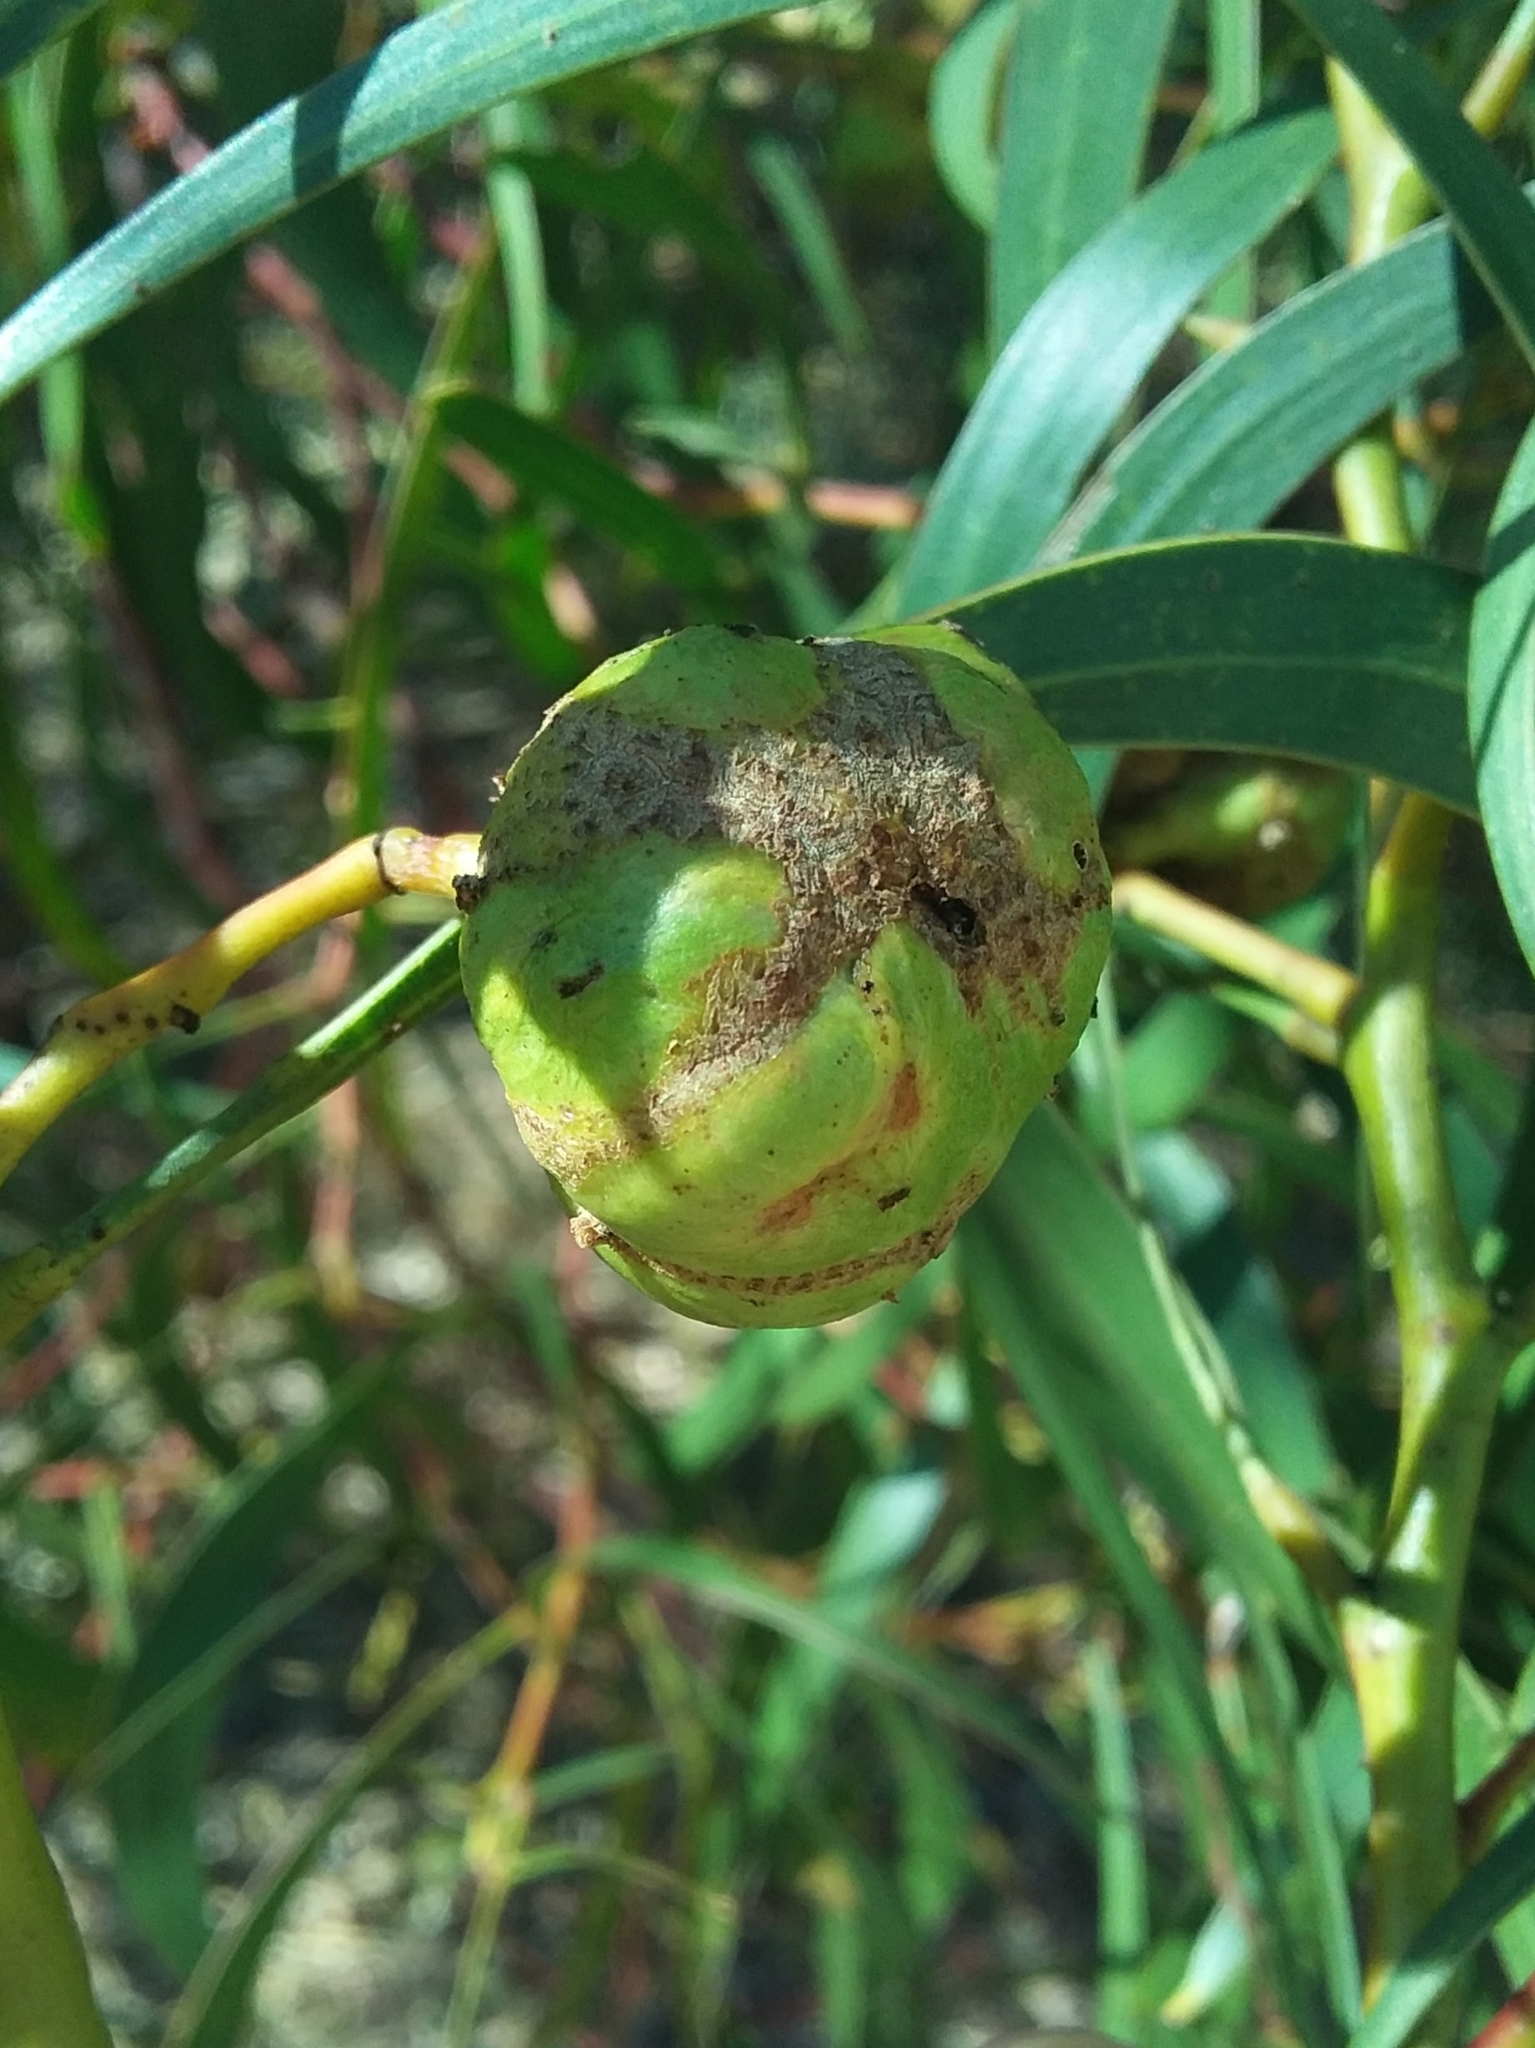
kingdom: Animalia
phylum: Arthropoda
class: Insecta
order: Hymenoptera
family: Pteromalidae
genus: Trichilogaster
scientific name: Trichilogaster signiventris
